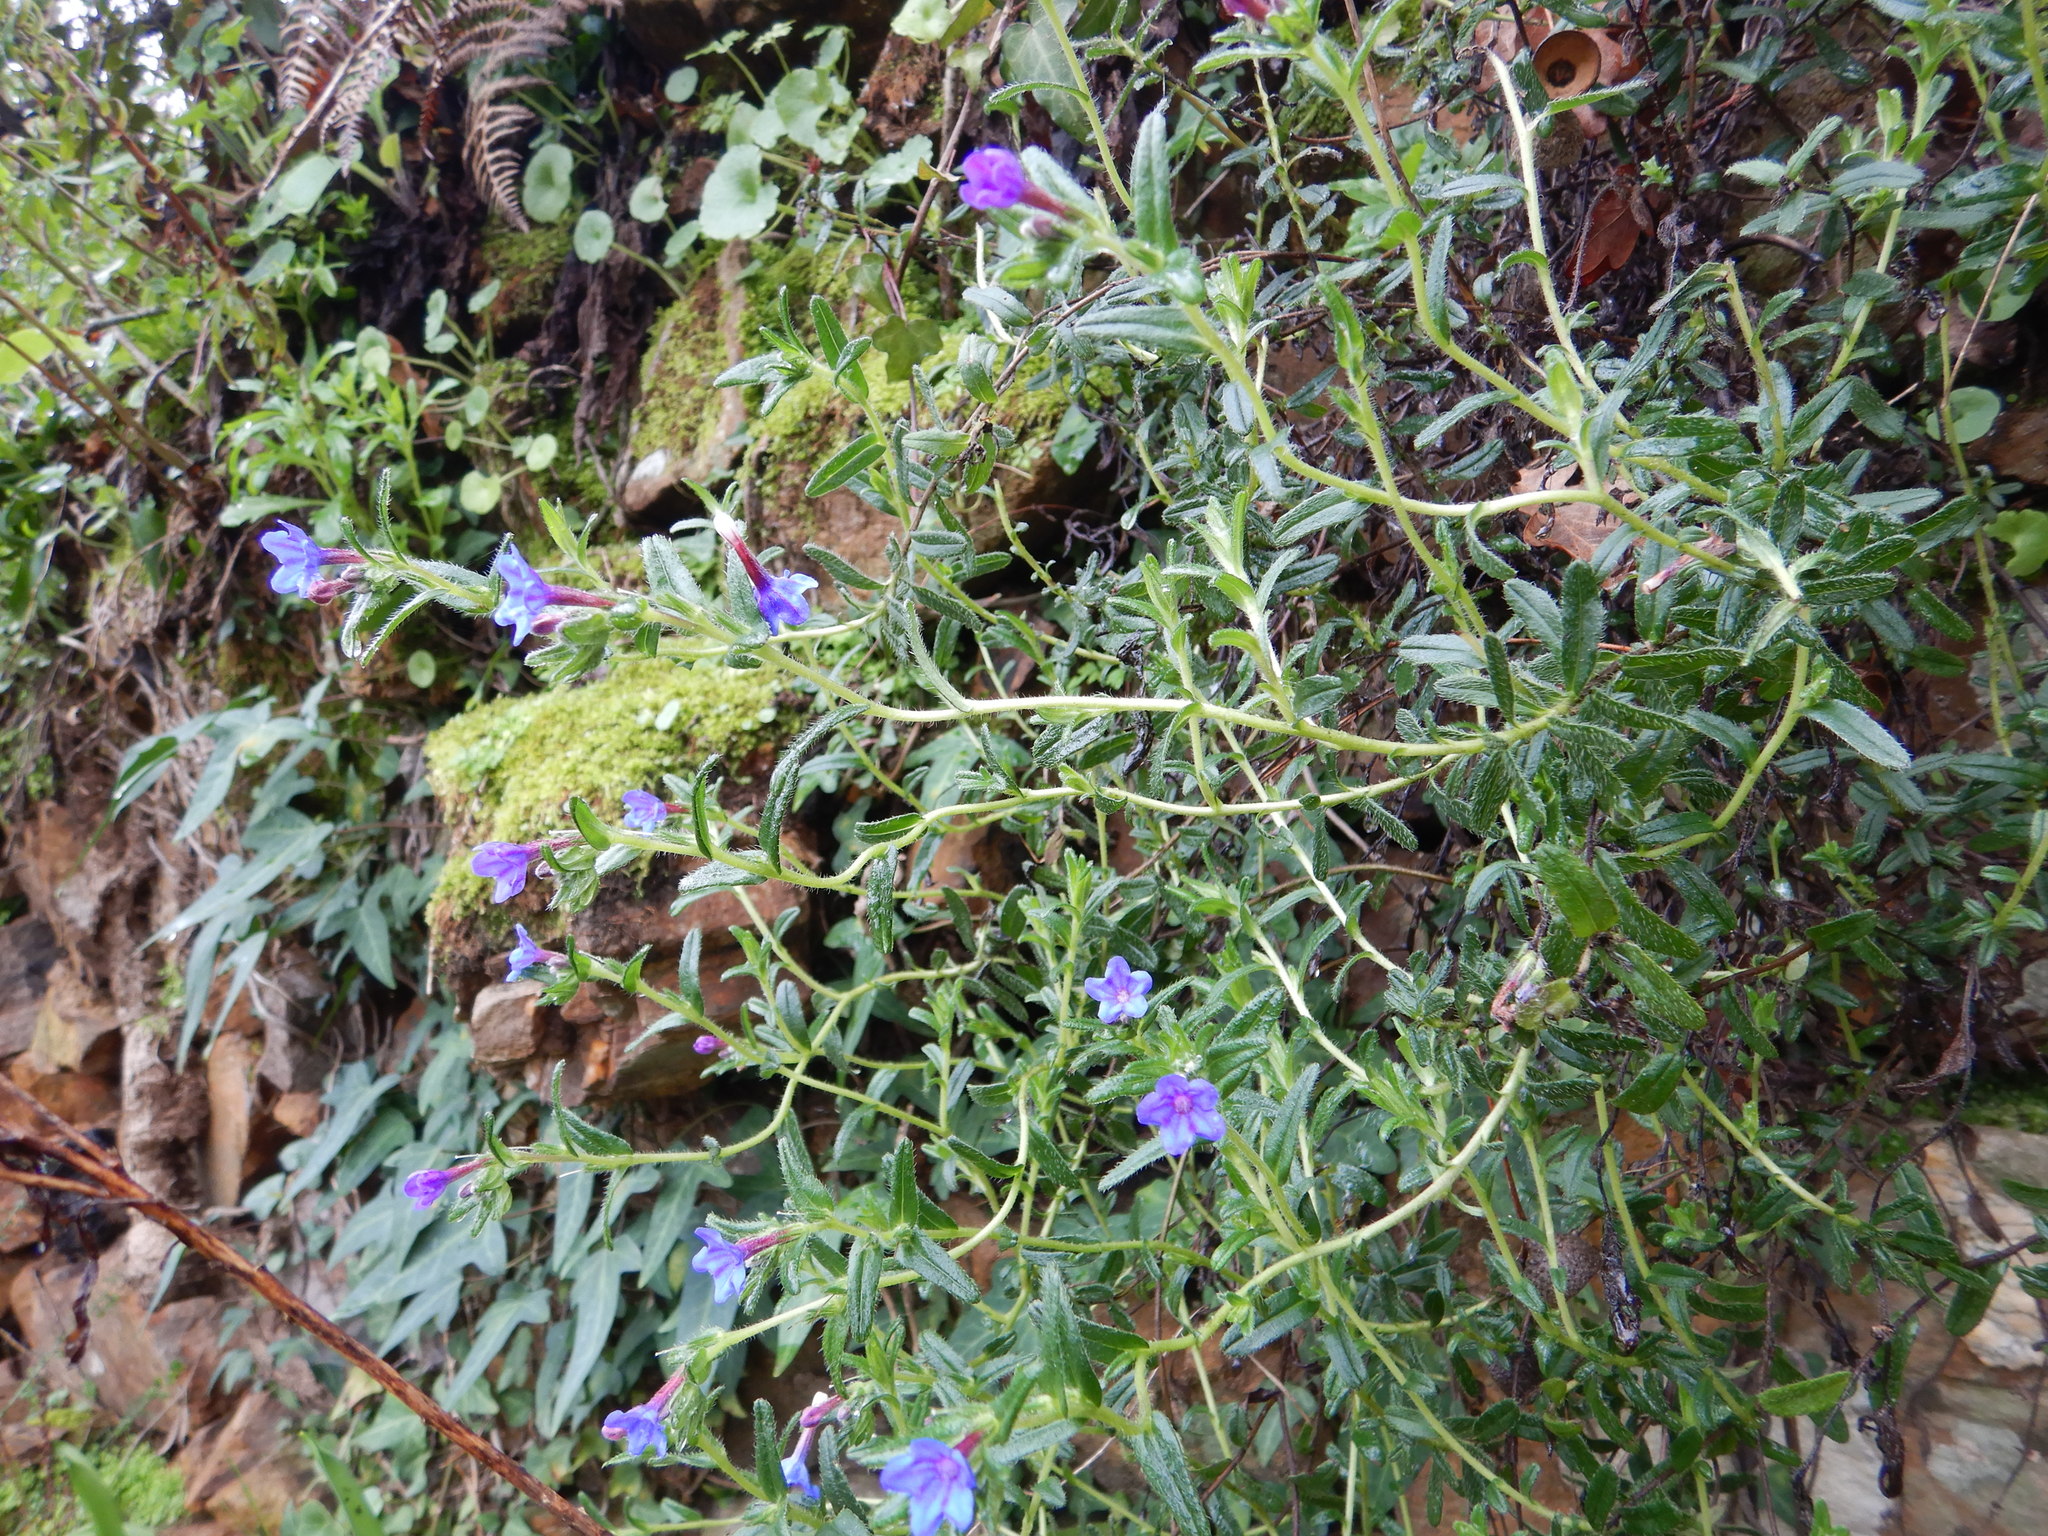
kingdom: Plantae
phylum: Tracheophyta
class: Magnoliopsida
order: Boraginales
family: Boraginaceae
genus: Glandora
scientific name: Glandora prostrata
